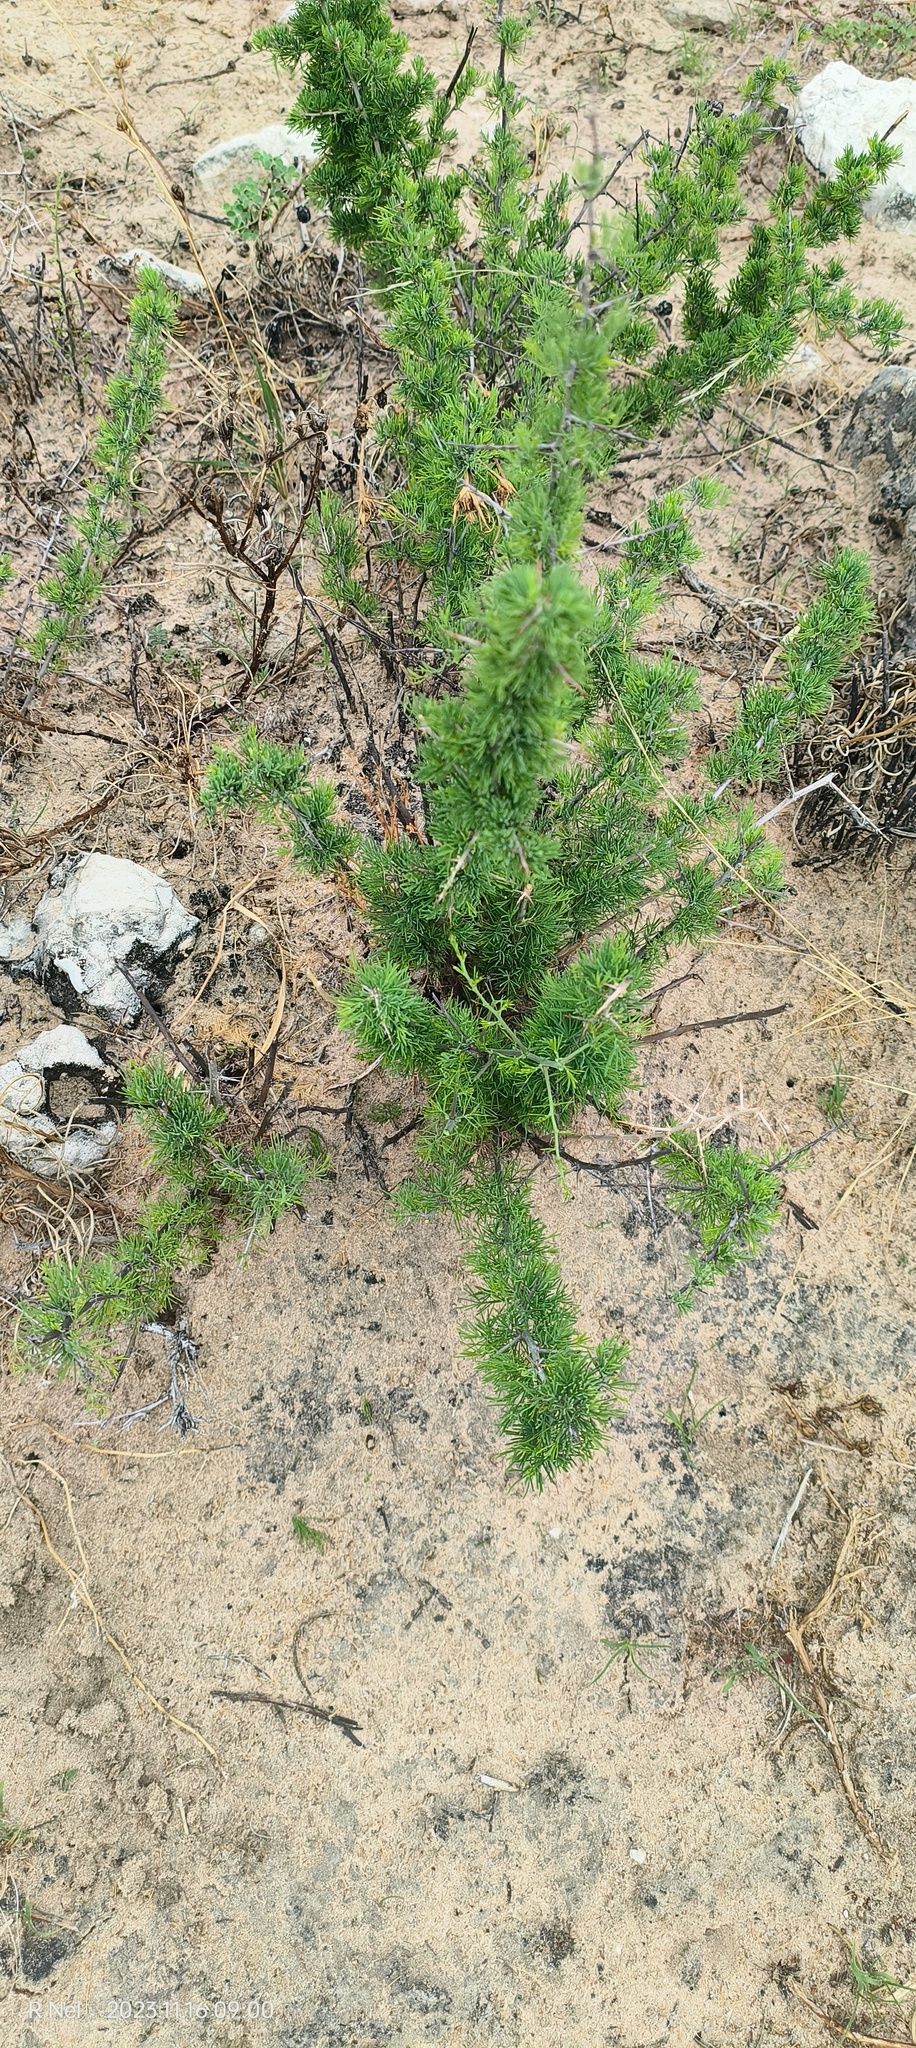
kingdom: Plantae
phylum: Tracheophyta
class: Liliopsida
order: Asparagales
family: Asparagaceae
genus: Asparagus
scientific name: Asparagus suaveolens
